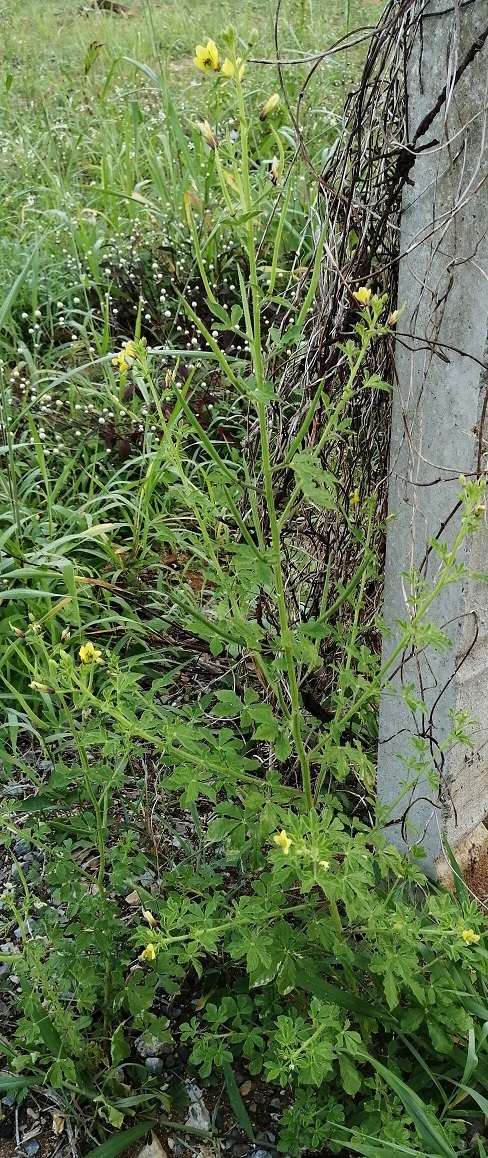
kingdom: Plantae
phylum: Tracheophyta
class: Magnoliopsida
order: Brassicales
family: Cleomaceae
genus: Arivela
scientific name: Arivela viscosa
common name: Asian spiderflower
